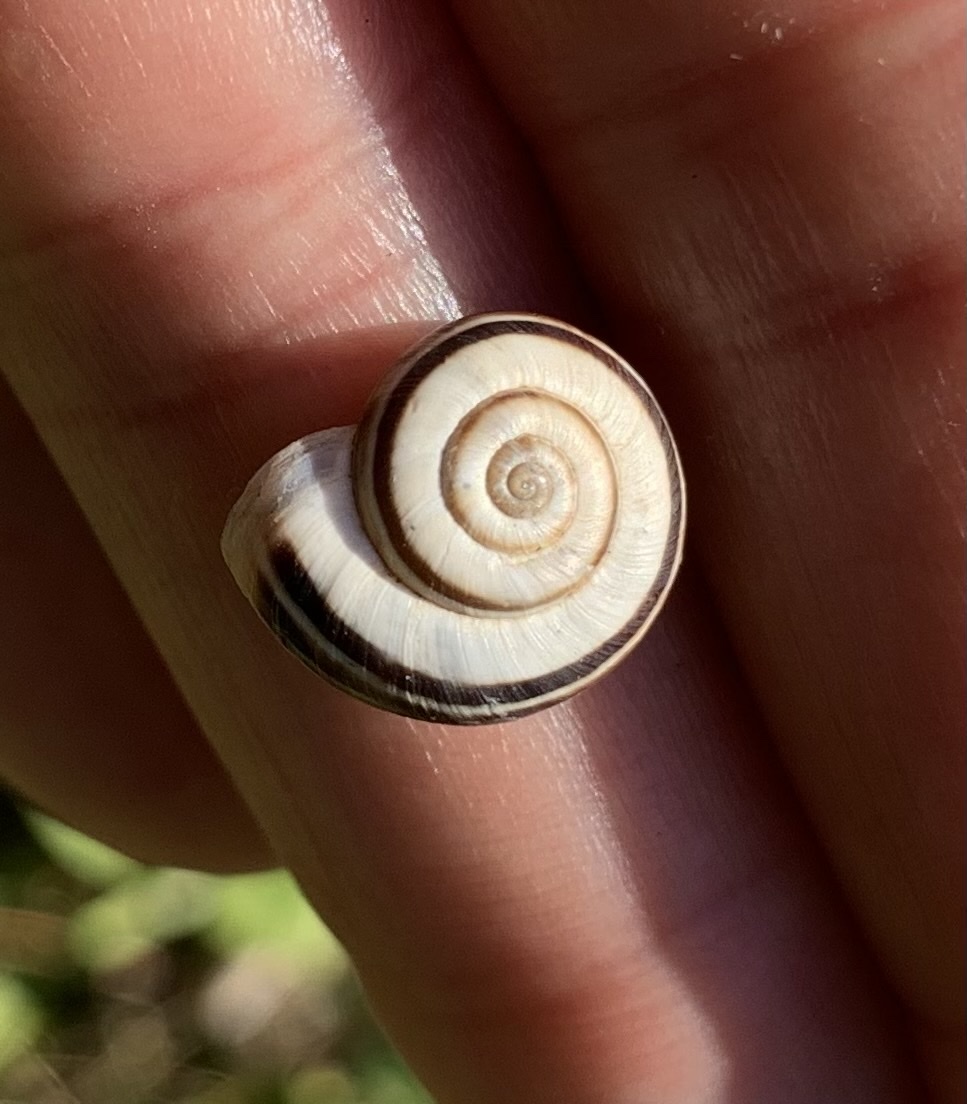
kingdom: Animalia
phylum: Mollusca
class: Gastropoda
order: Stylommatophora
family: Geomitridae
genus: Xerolenta
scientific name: Xerolenta obvia
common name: White heath snail
